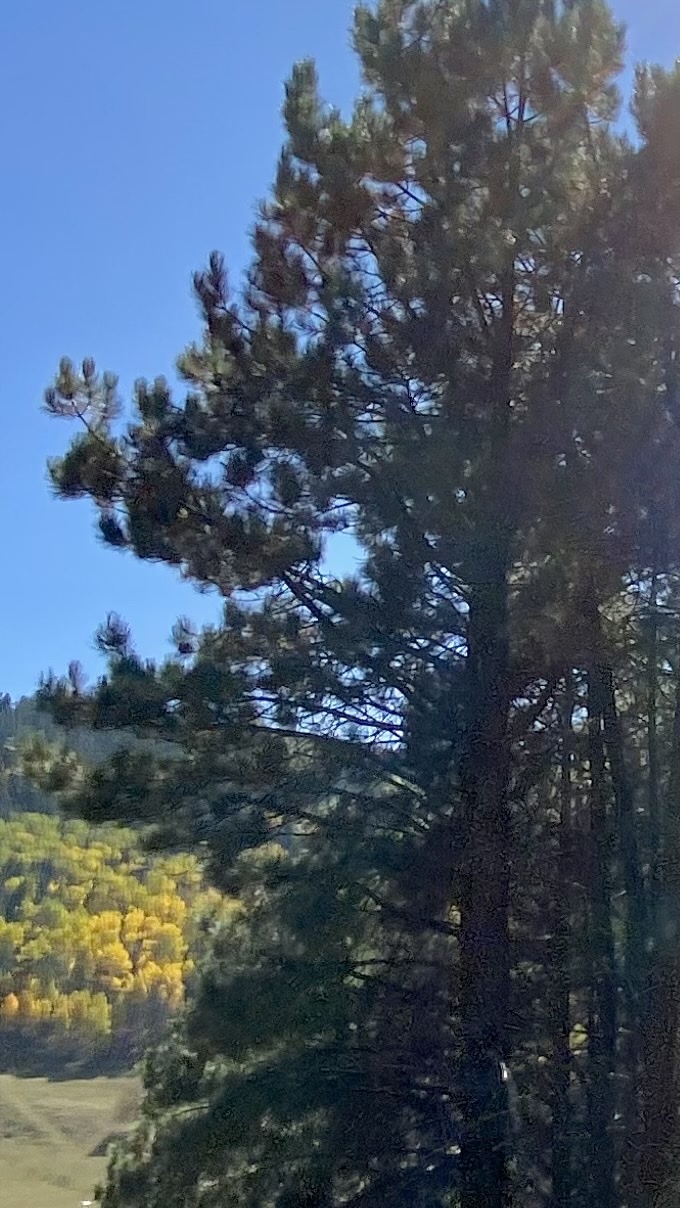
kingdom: Plantae
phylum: Tracheophyta
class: Pinopsida
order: Pinales
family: Pinaceae
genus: Pinus
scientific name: Pinus ponderosa
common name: Western yellow-pine
